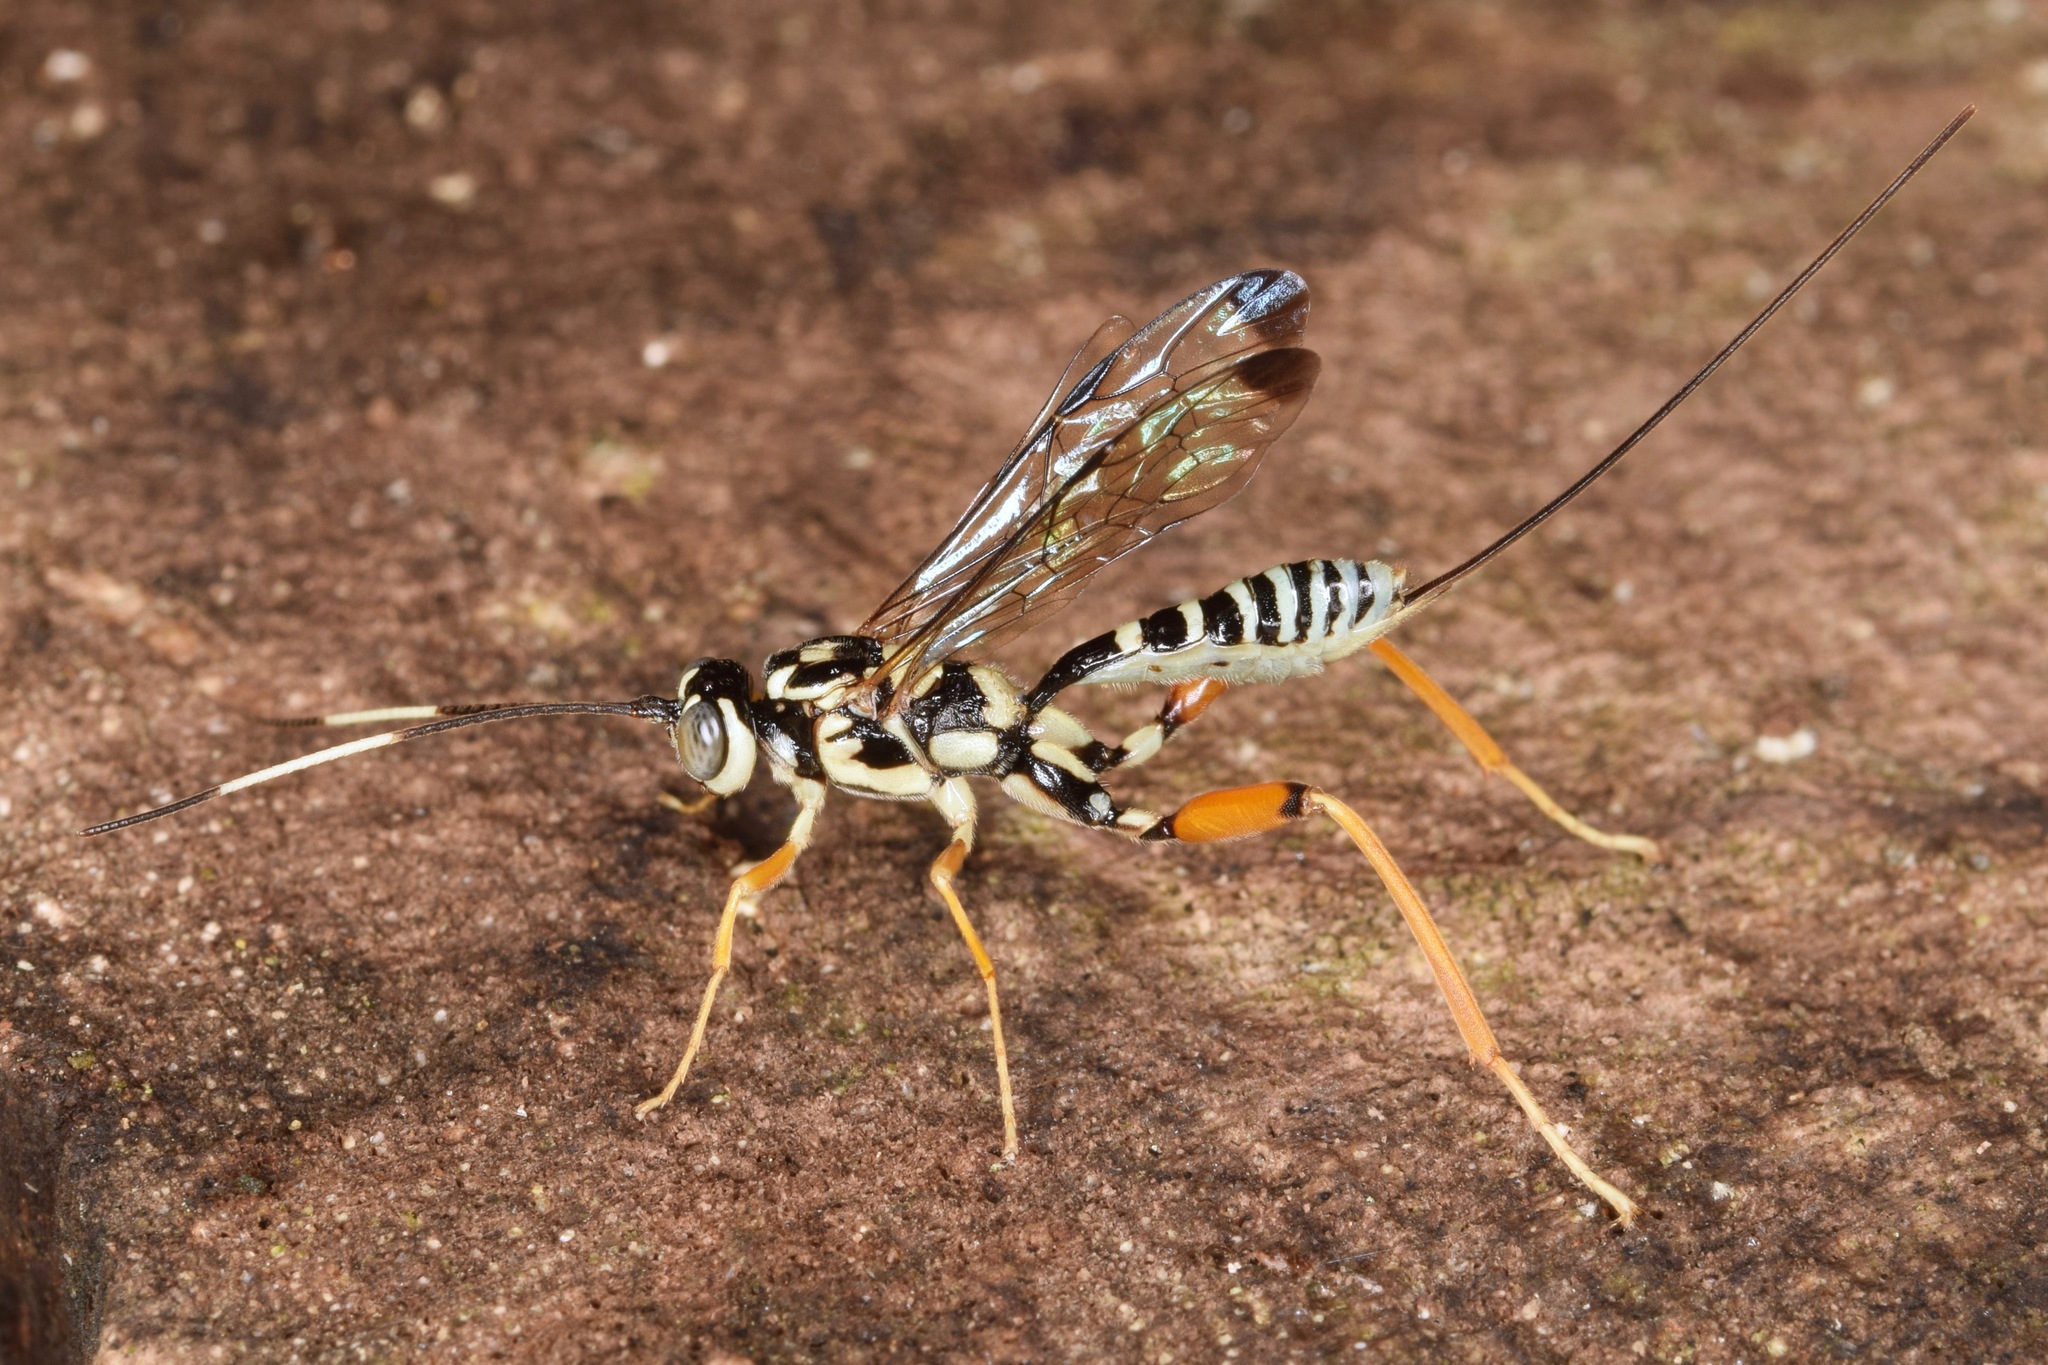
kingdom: Animalia
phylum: Arthropoda
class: Insecta
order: Hymenoptera
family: Ichneumonidae
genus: Arotes
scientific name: Arotes decorus
